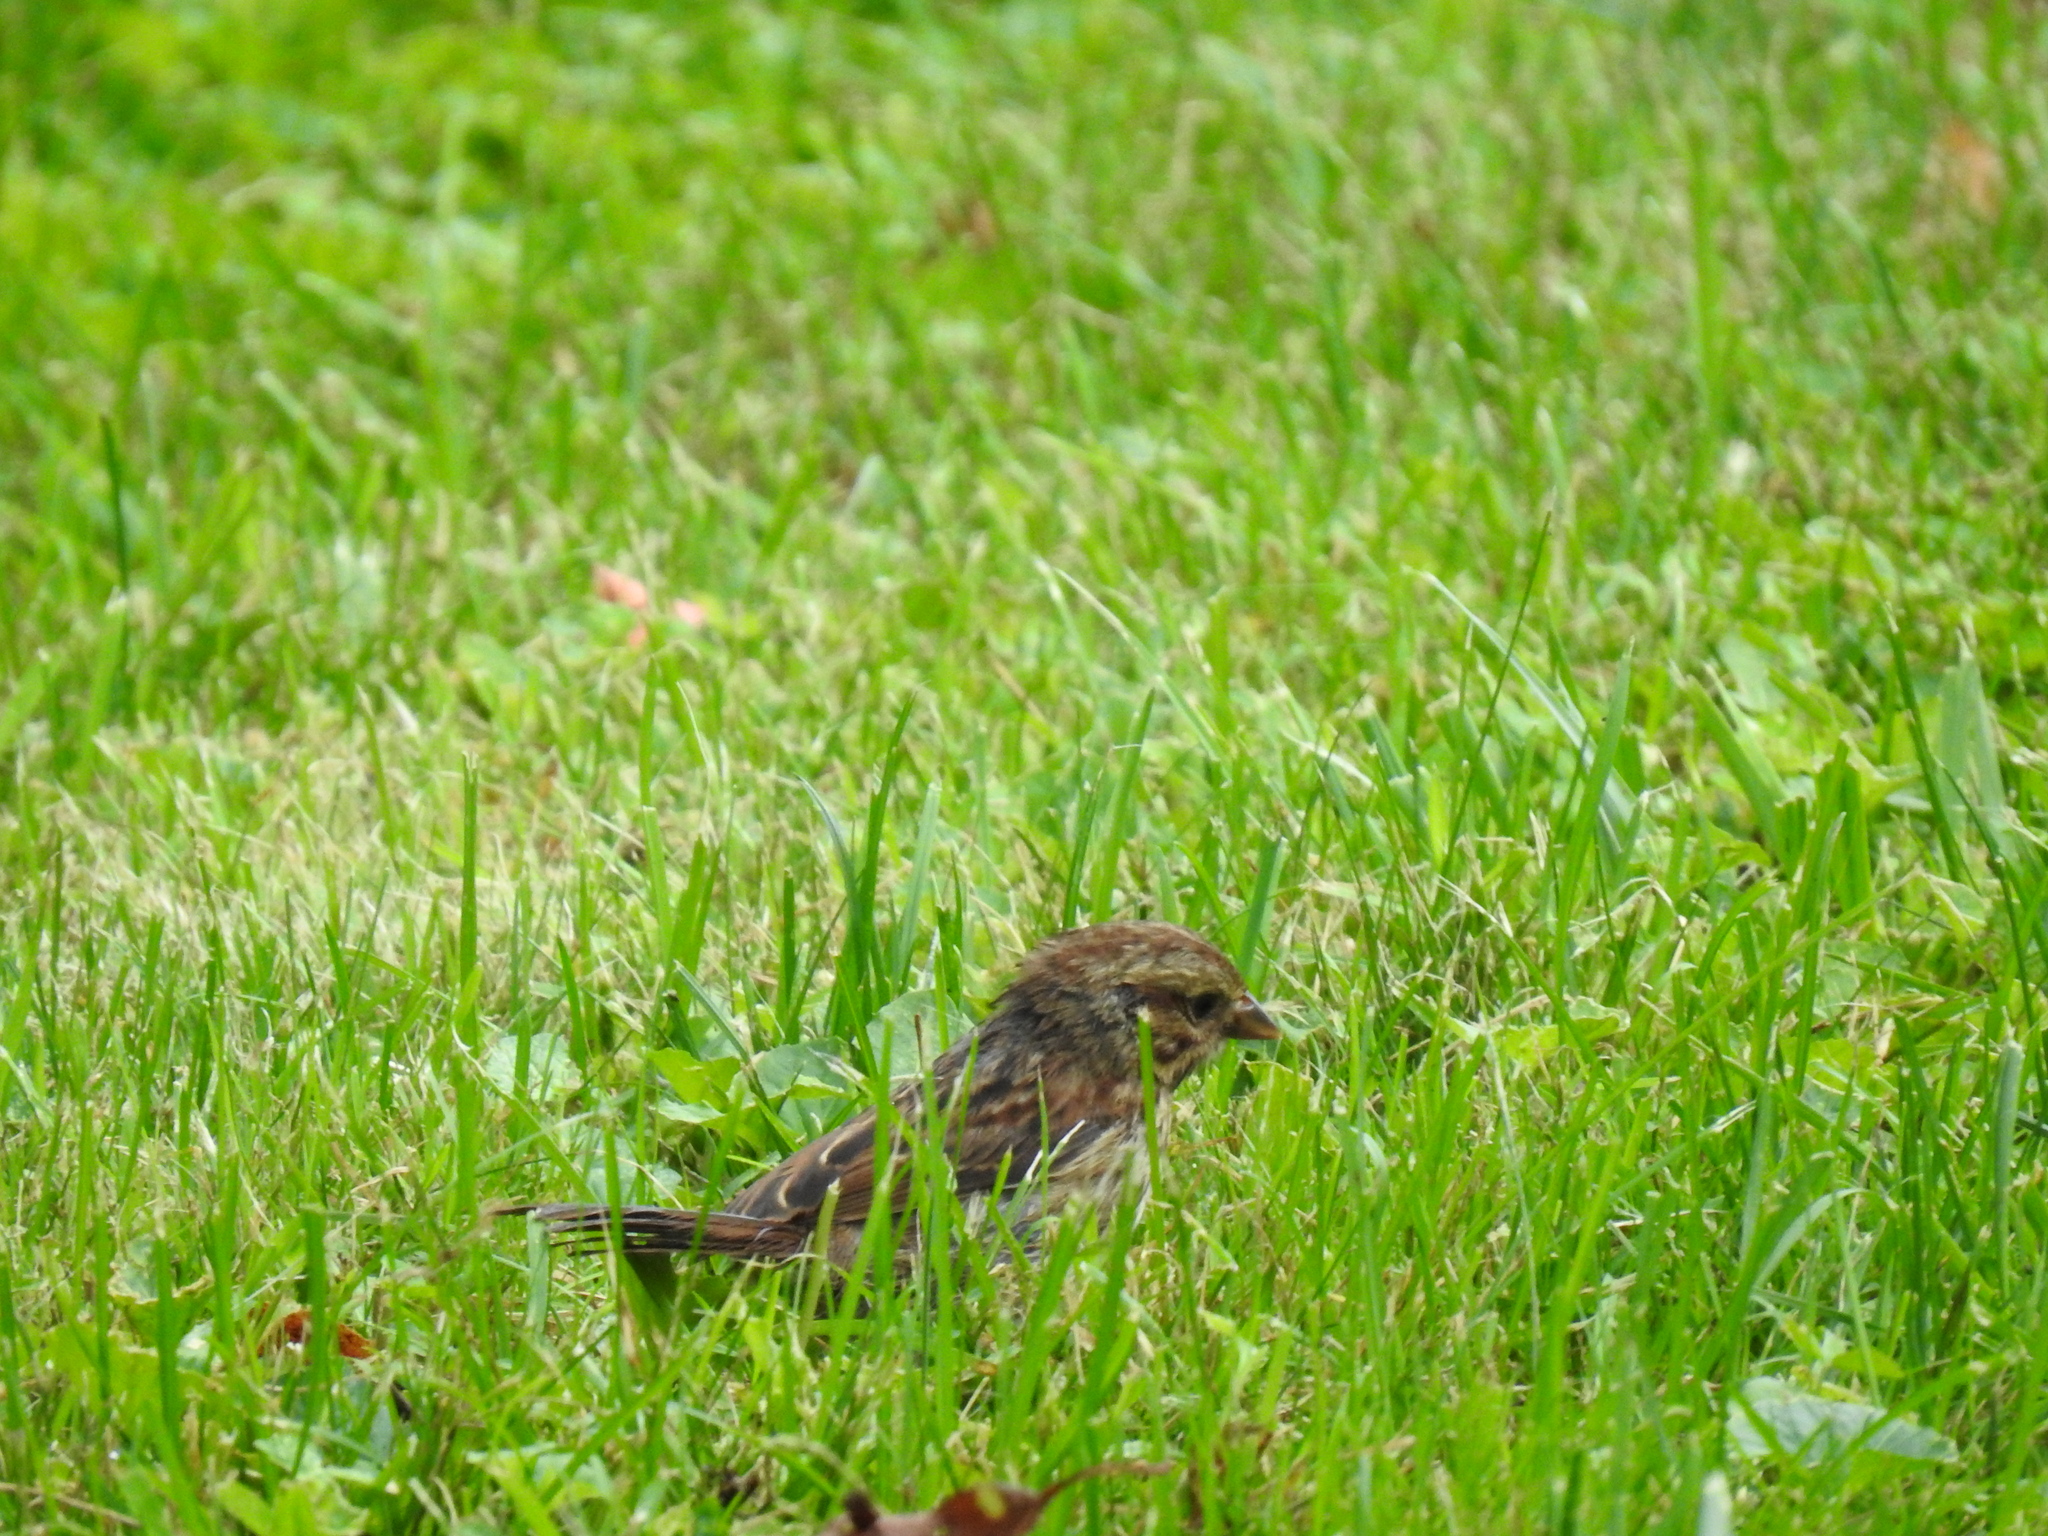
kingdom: Animalia
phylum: Chordata
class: Aves
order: Passeriformes
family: Passerellidae
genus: Melospiza
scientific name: Melospiza melodia
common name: Song sparrow
